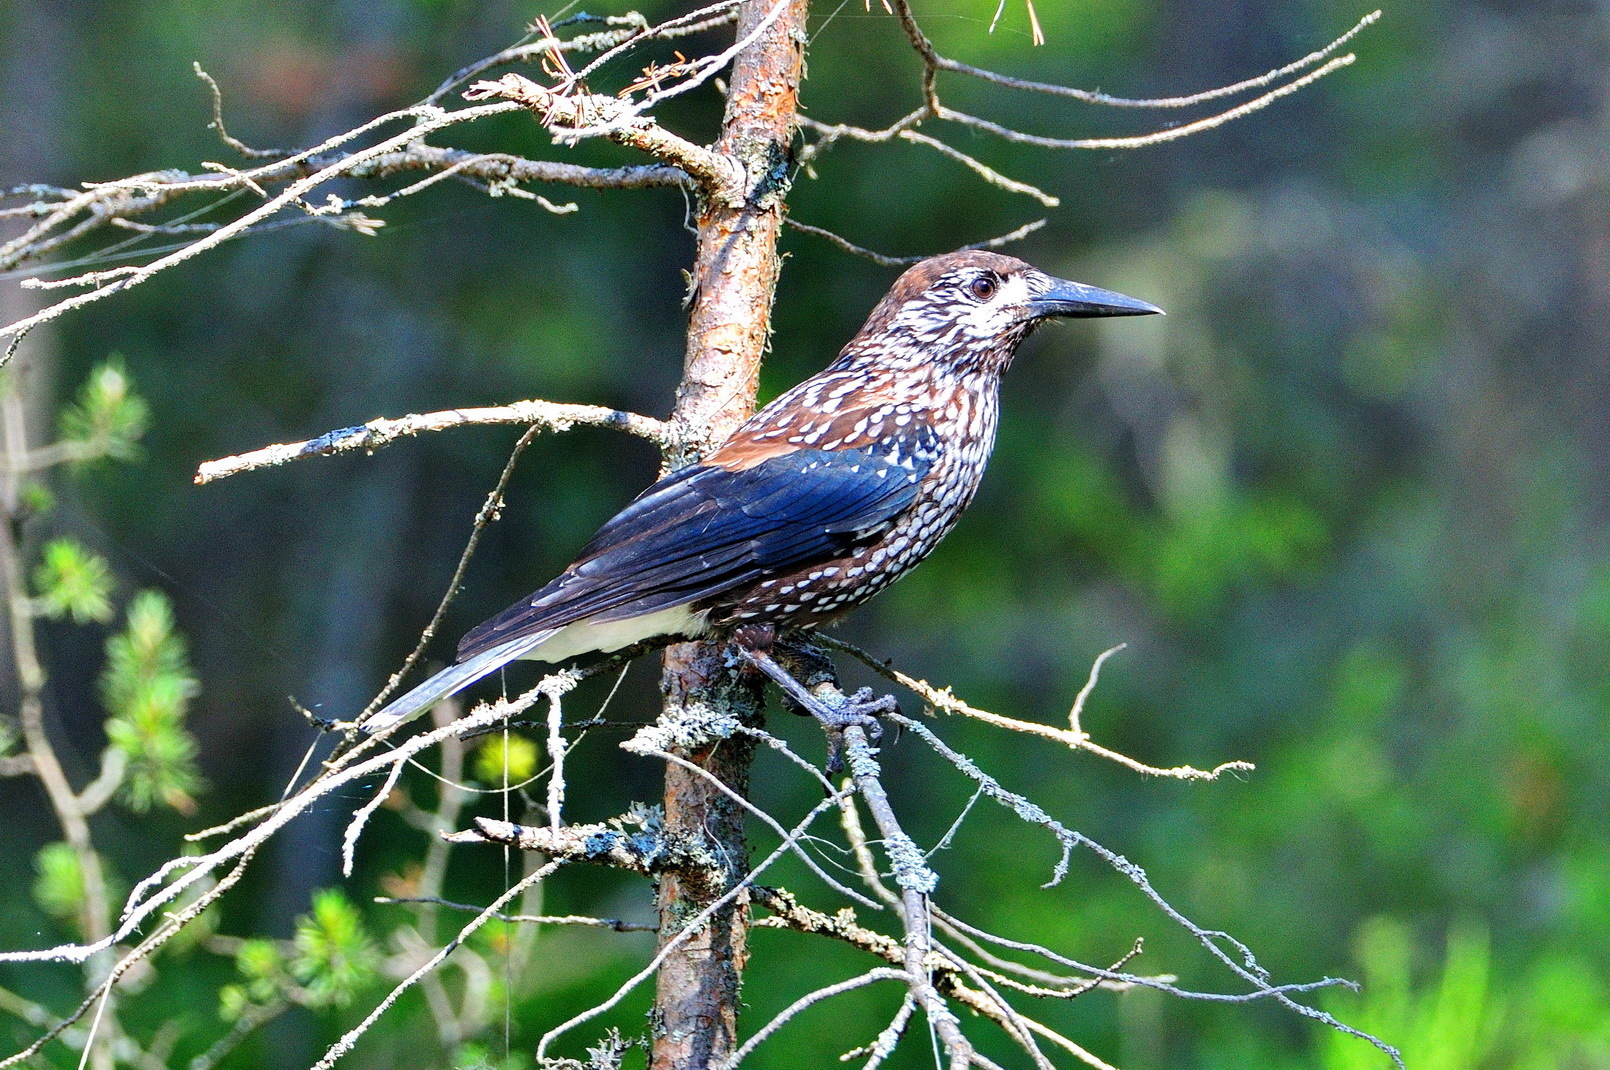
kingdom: Animalia
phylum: Chordata
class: Aves
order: Passeriformes
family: Corvidae
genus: Nucifraga
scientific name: Nucifraga caryocatactes
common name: Spotted nutcracker
